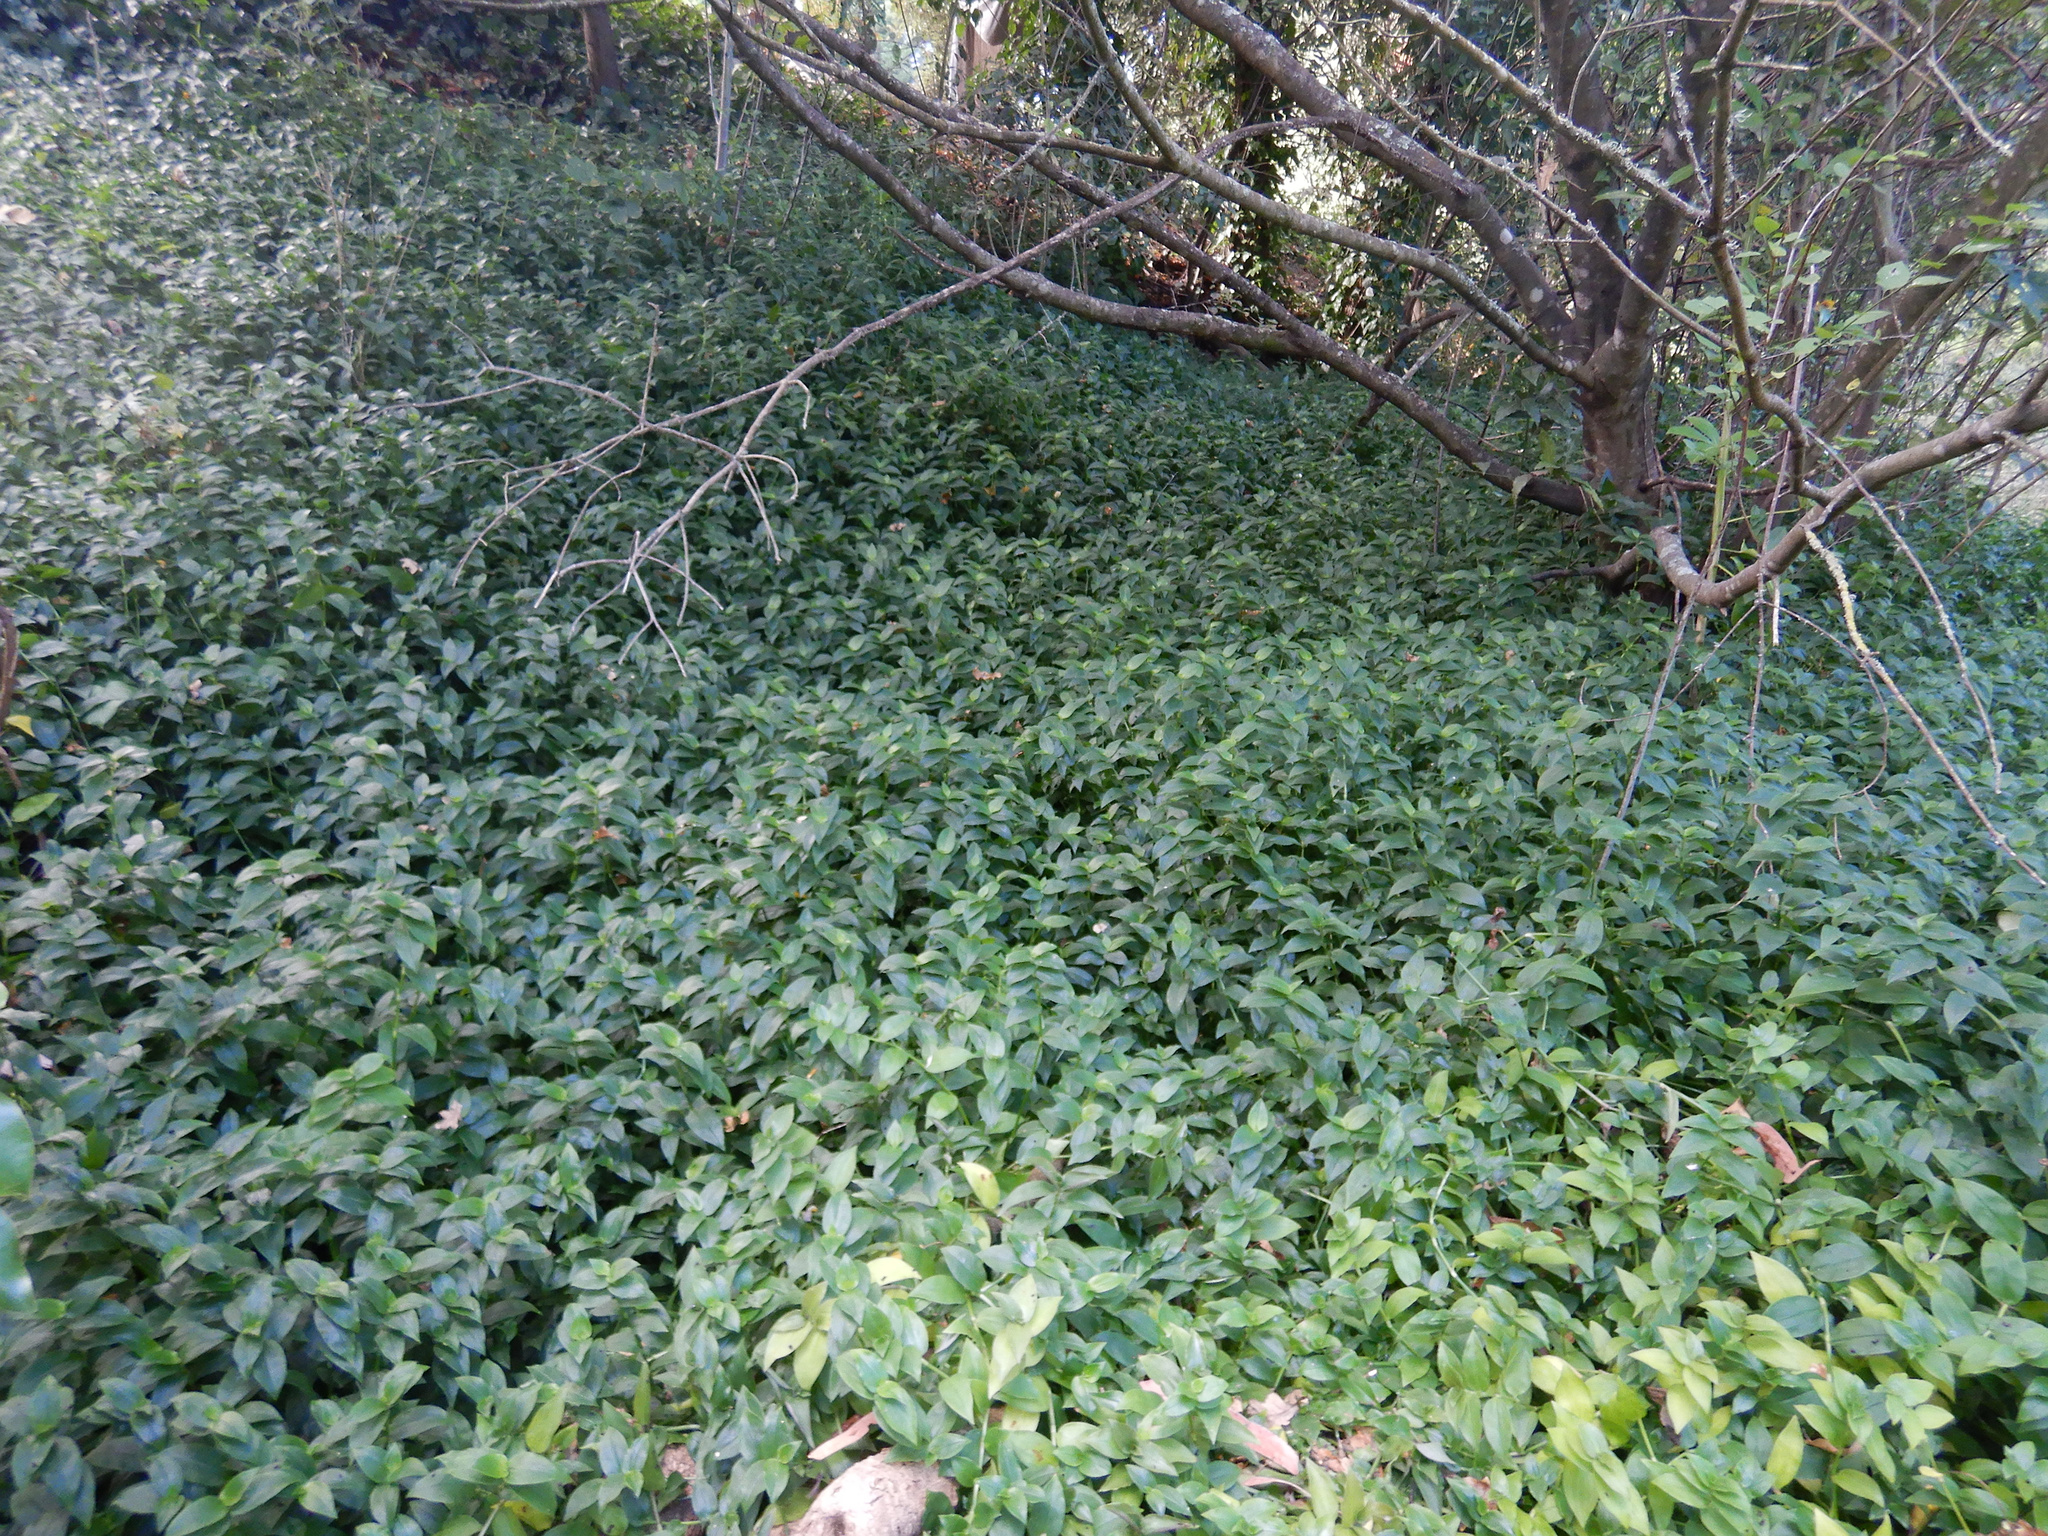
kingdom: Plantae
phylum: Tracheophyta
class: Liliopsida
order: Commelinales
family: Commelinaceae
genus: Tradescantia
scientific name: Tradescantia fluminensis
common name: Wandering-jew
